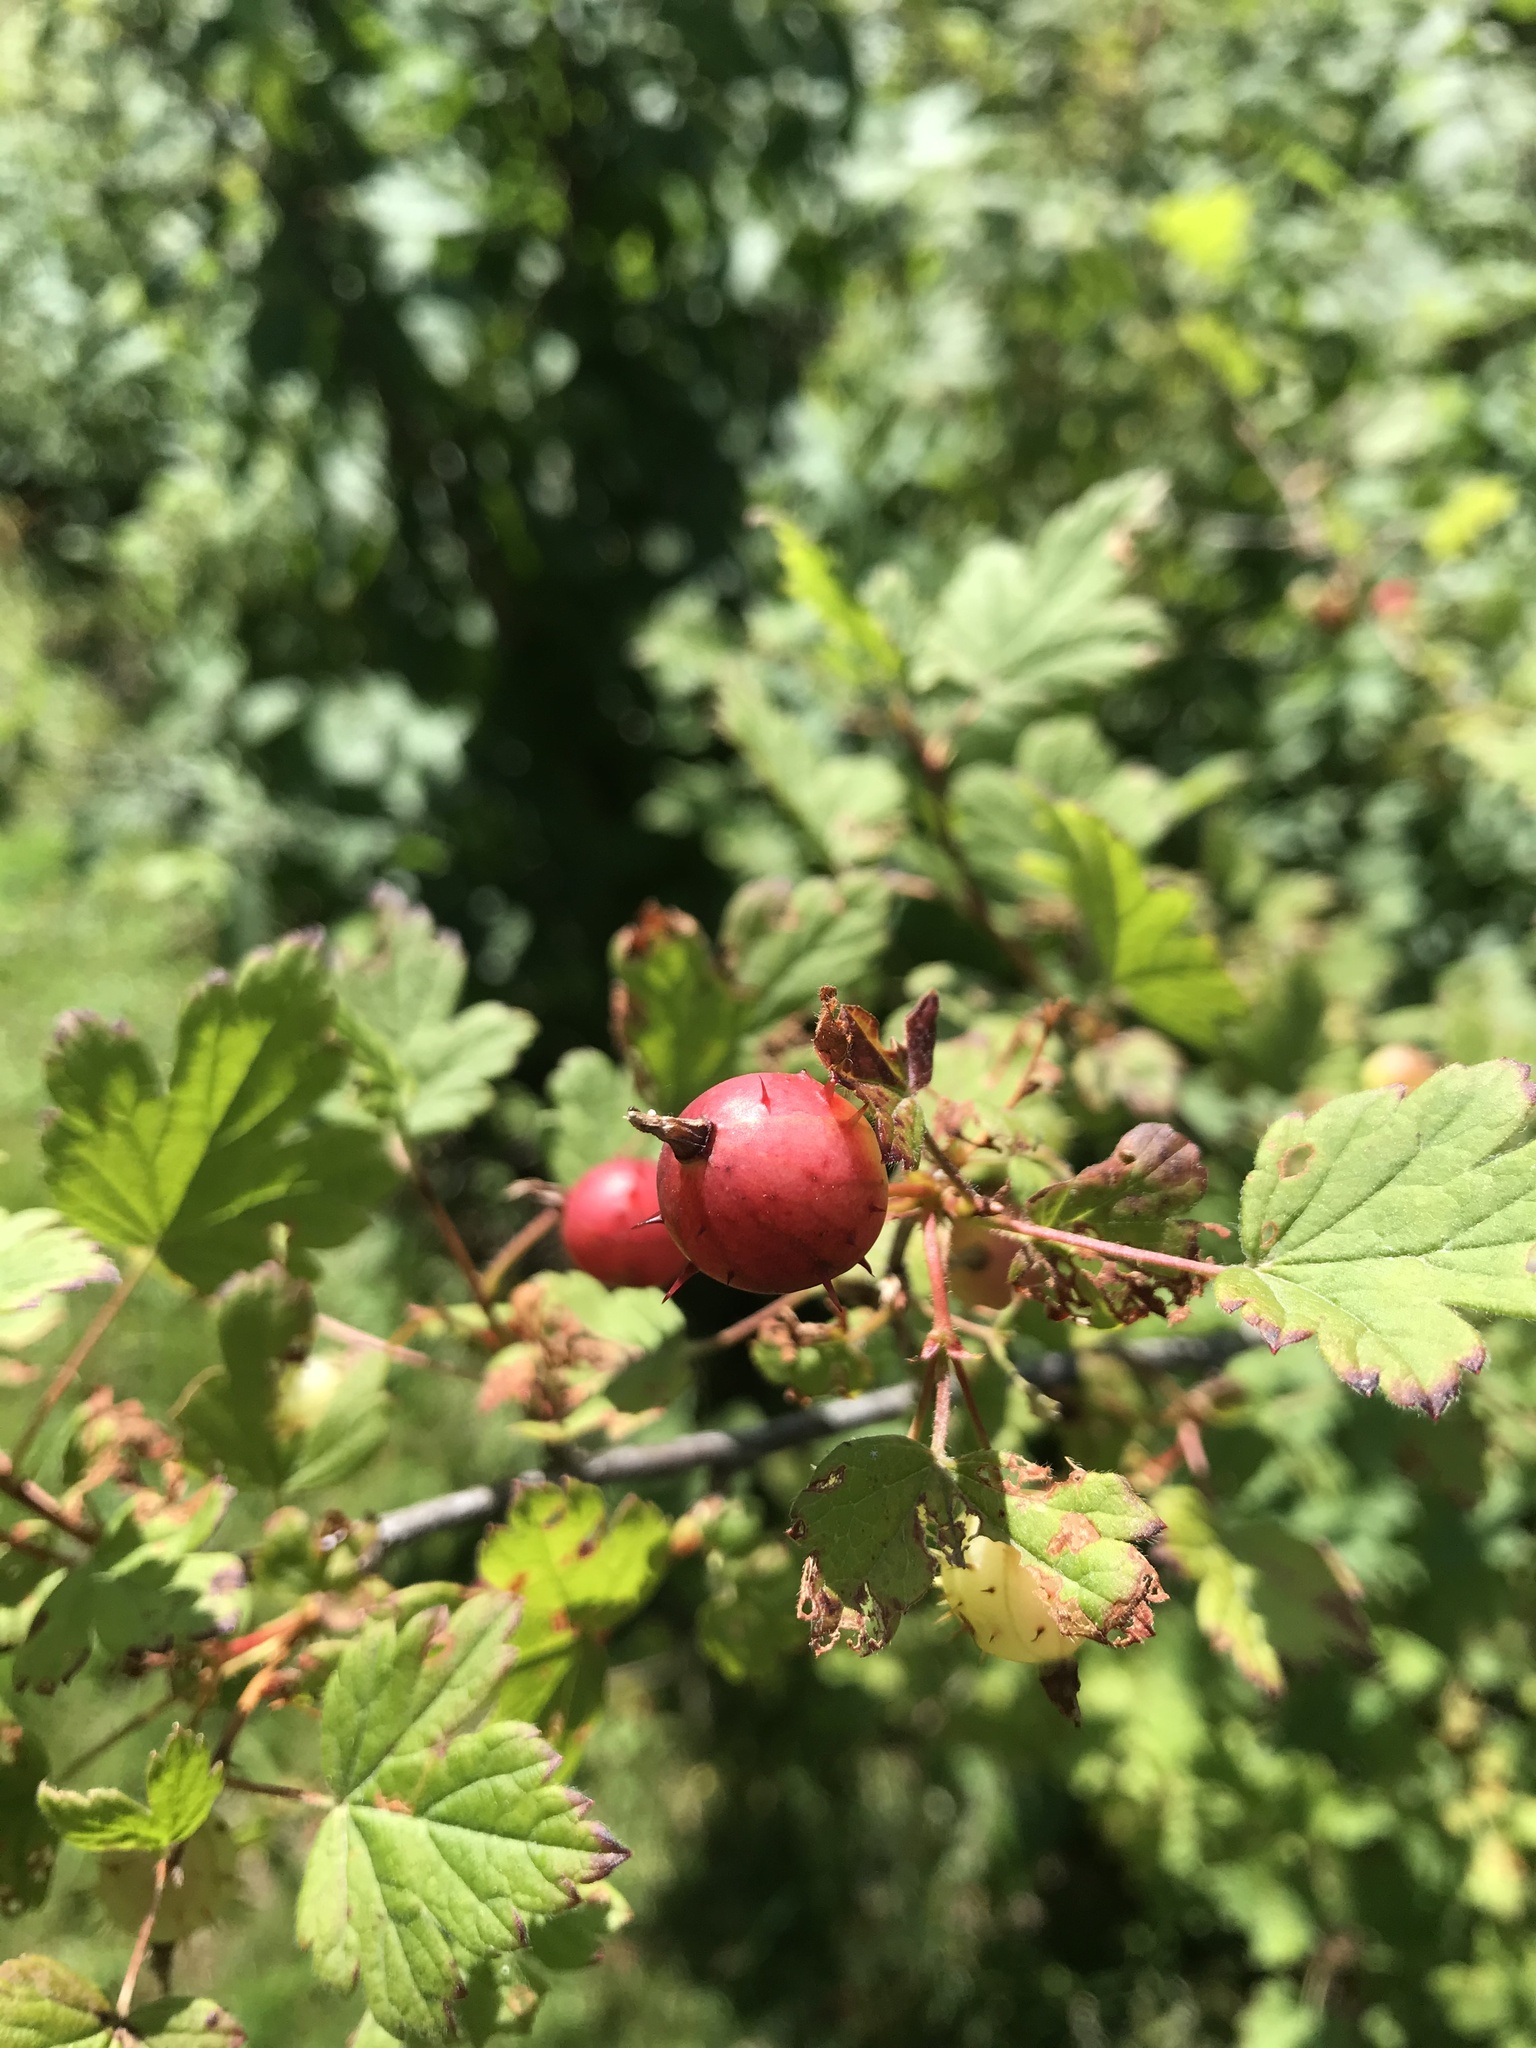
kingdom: Plantae
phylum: Tracheophyta
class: Magnoliopsida
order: Saxifragales
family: Grossulariaceae
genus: Ribes
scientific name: Ribes cynosbati
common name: American gooseberry
